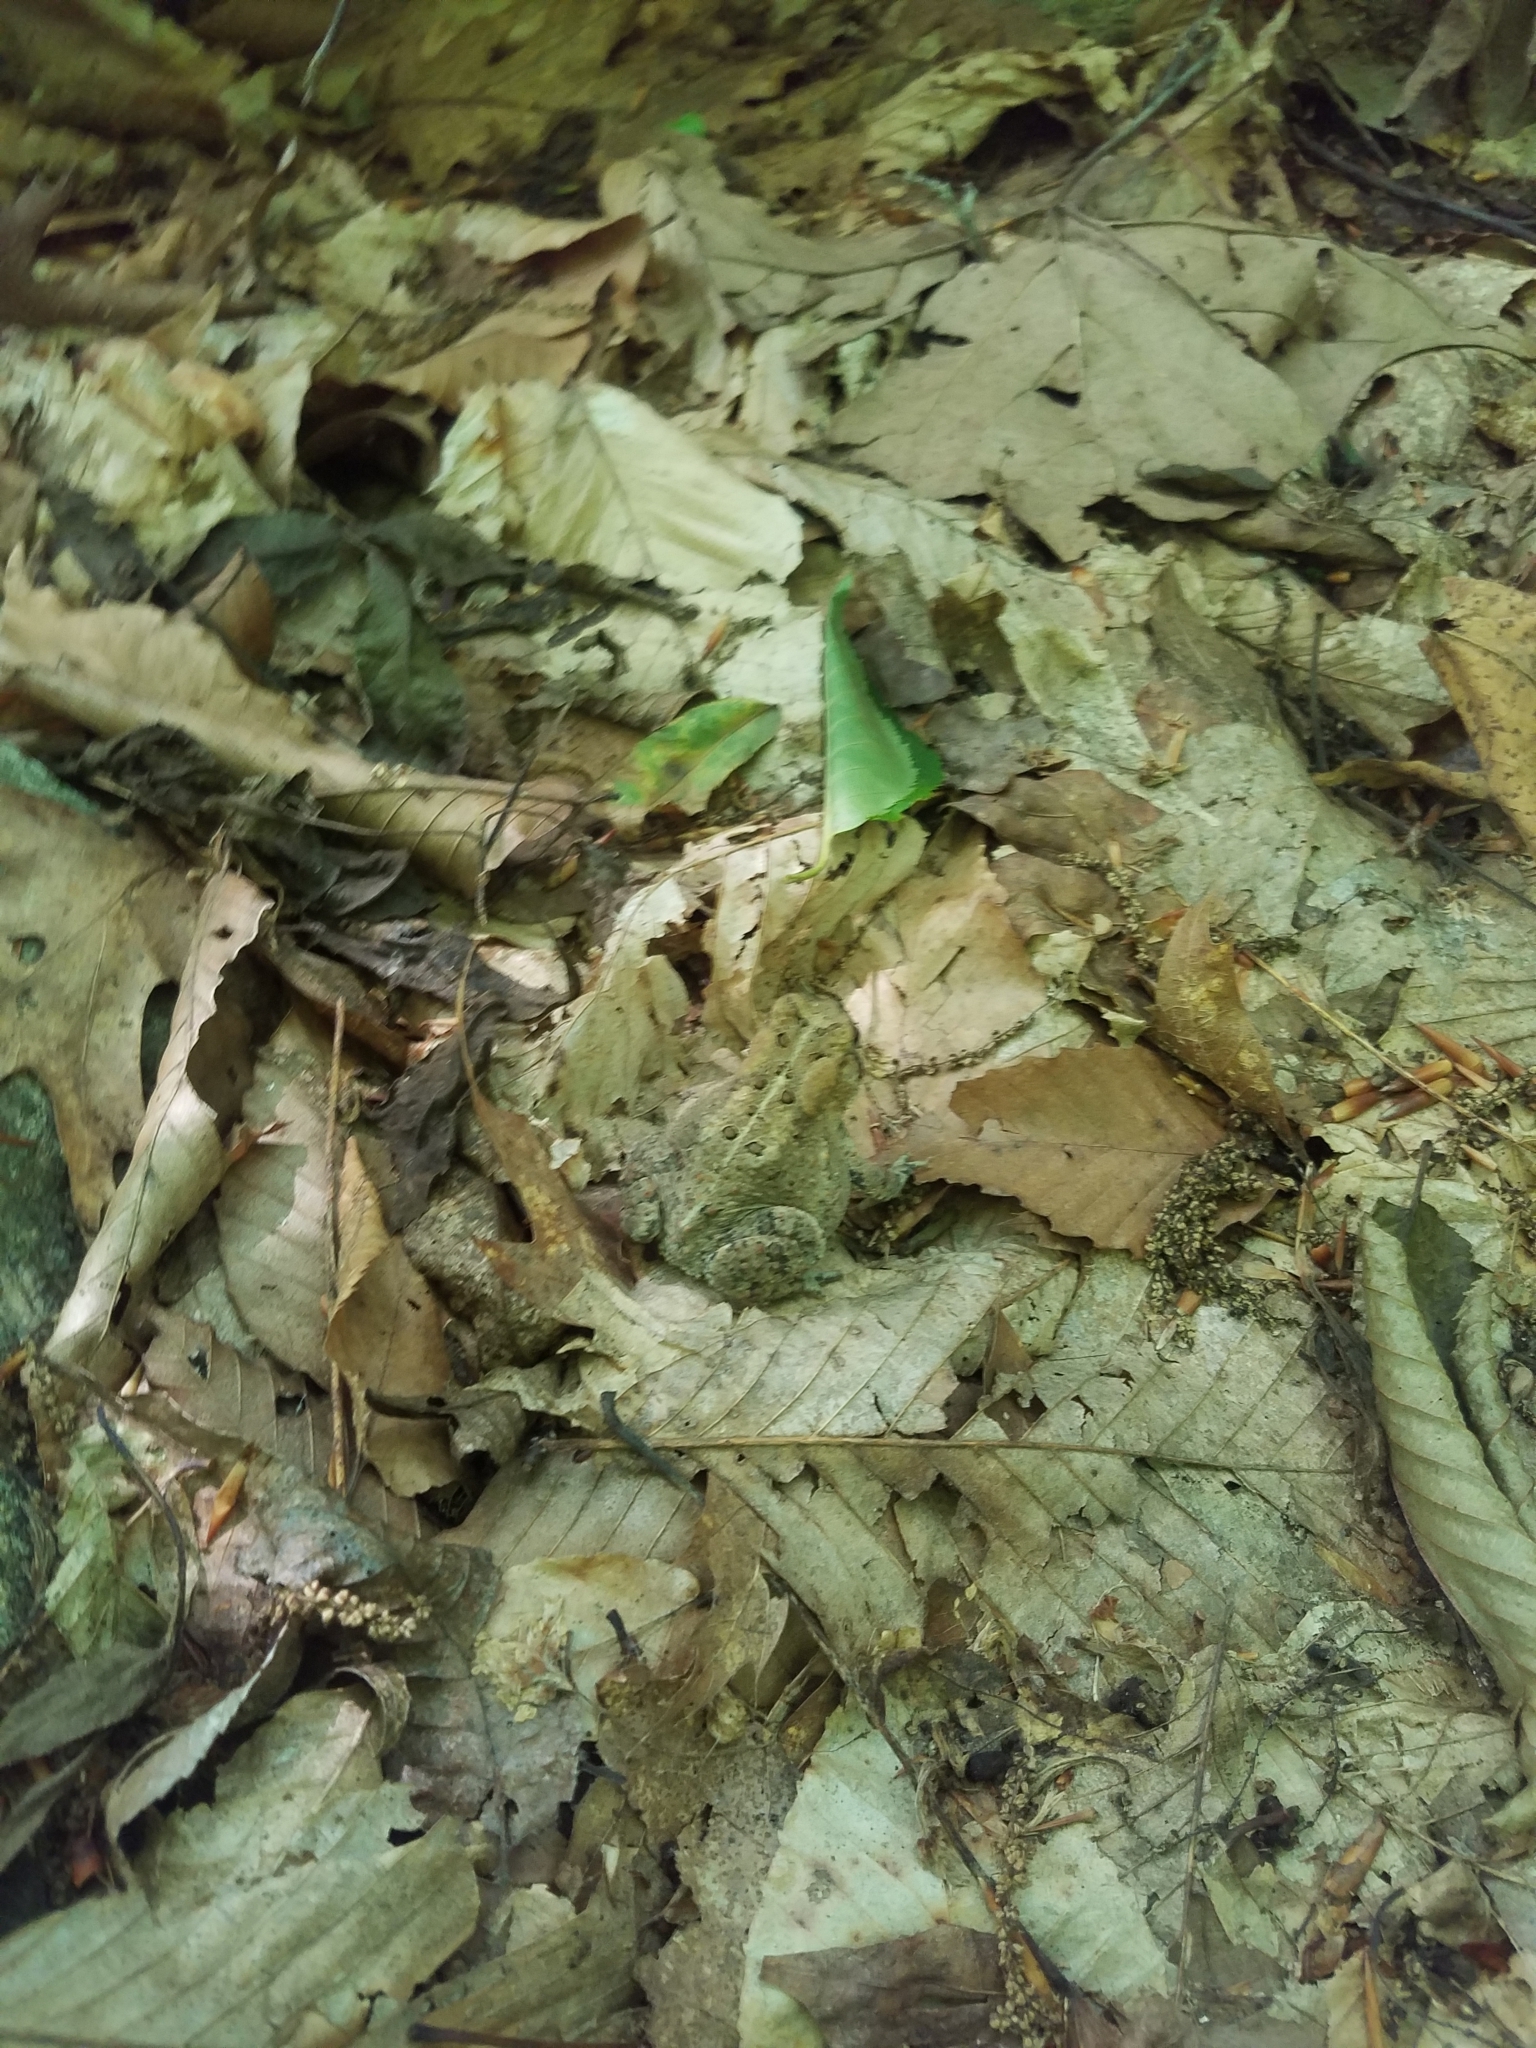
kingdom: Animalia
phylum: Chordata
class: Amphibia
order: Anura
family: Bufonidae
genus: Anaxyrus
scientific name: Anaxyrus americanus
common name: American toad
